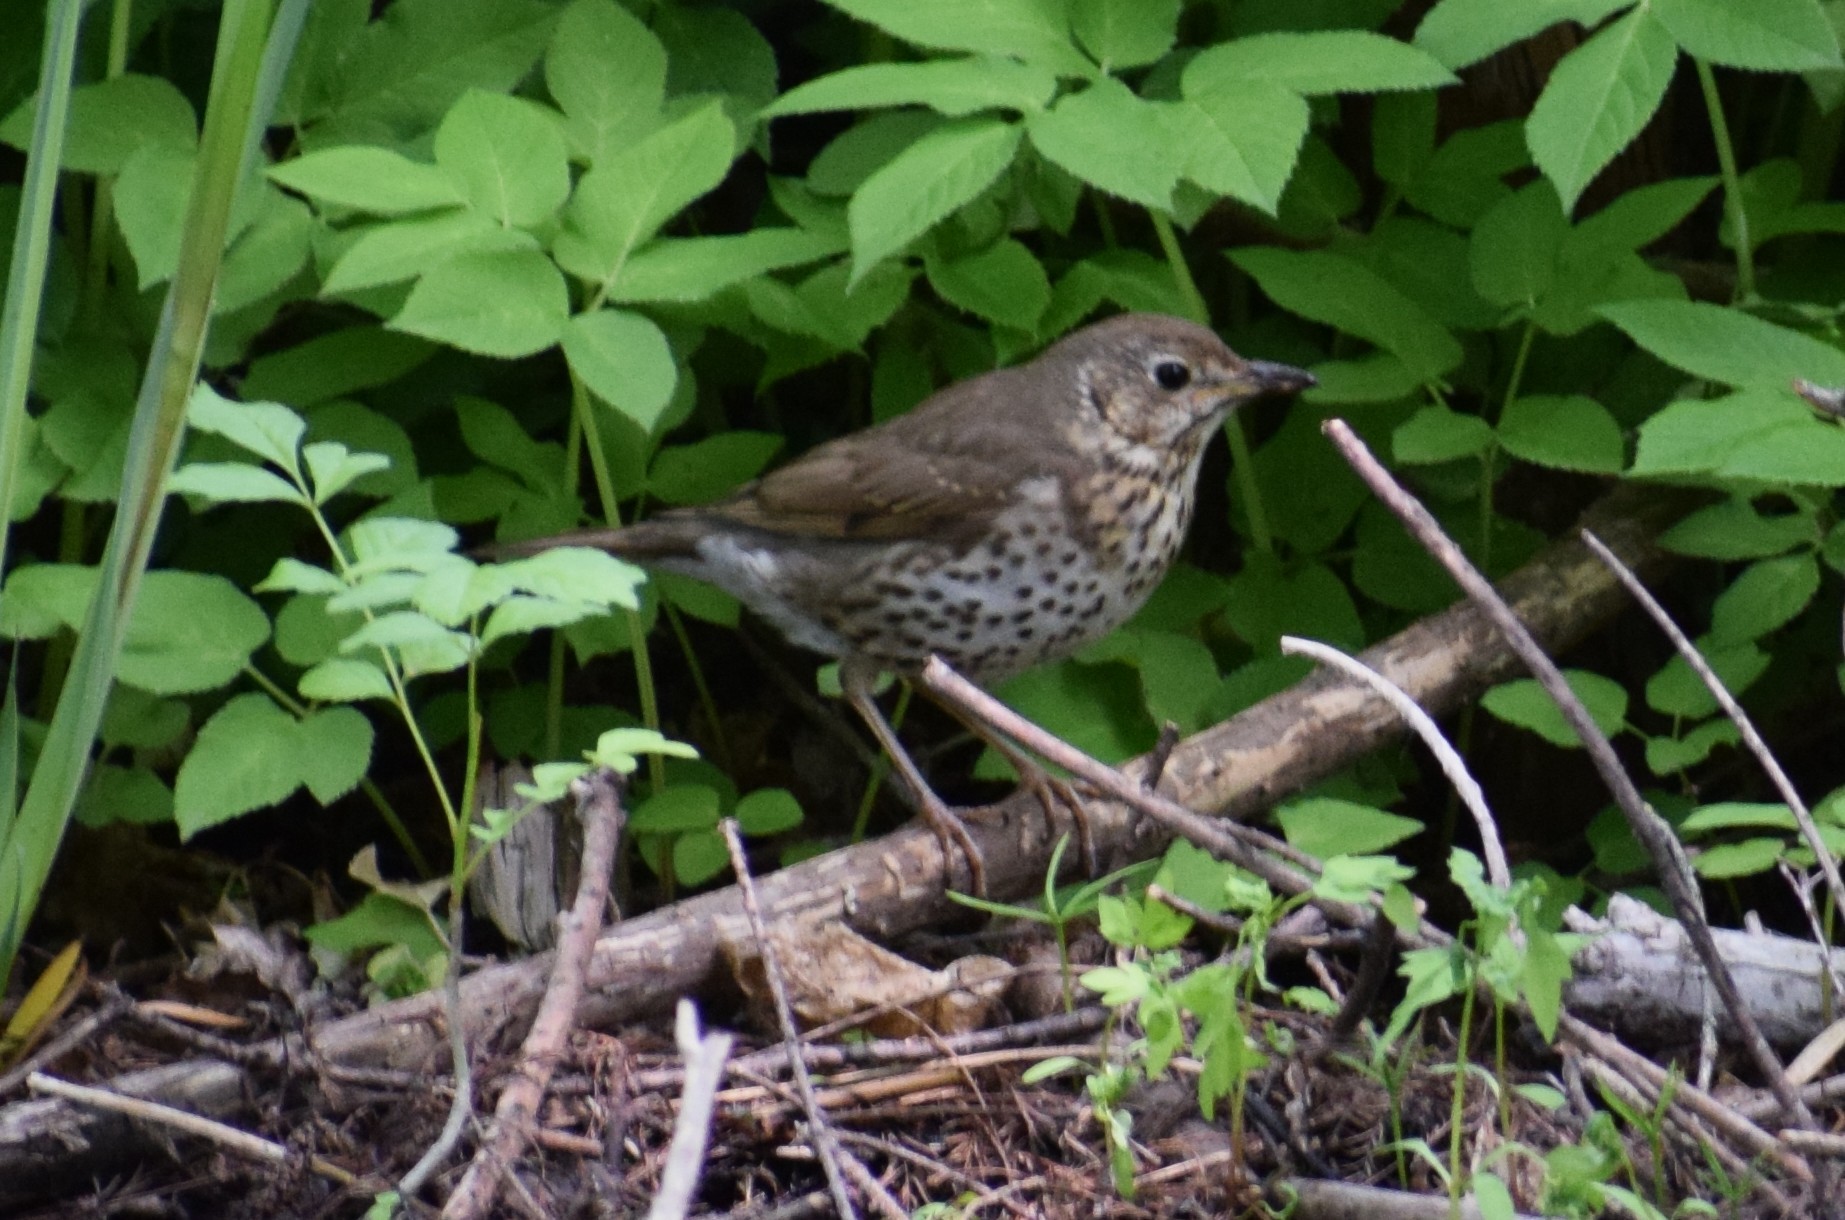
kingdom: Animalia
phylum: Chordata
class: Aves
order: Passeriformes
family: Turdidae
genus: Turdus
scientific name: Turdus philomelos
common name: Song thrush
